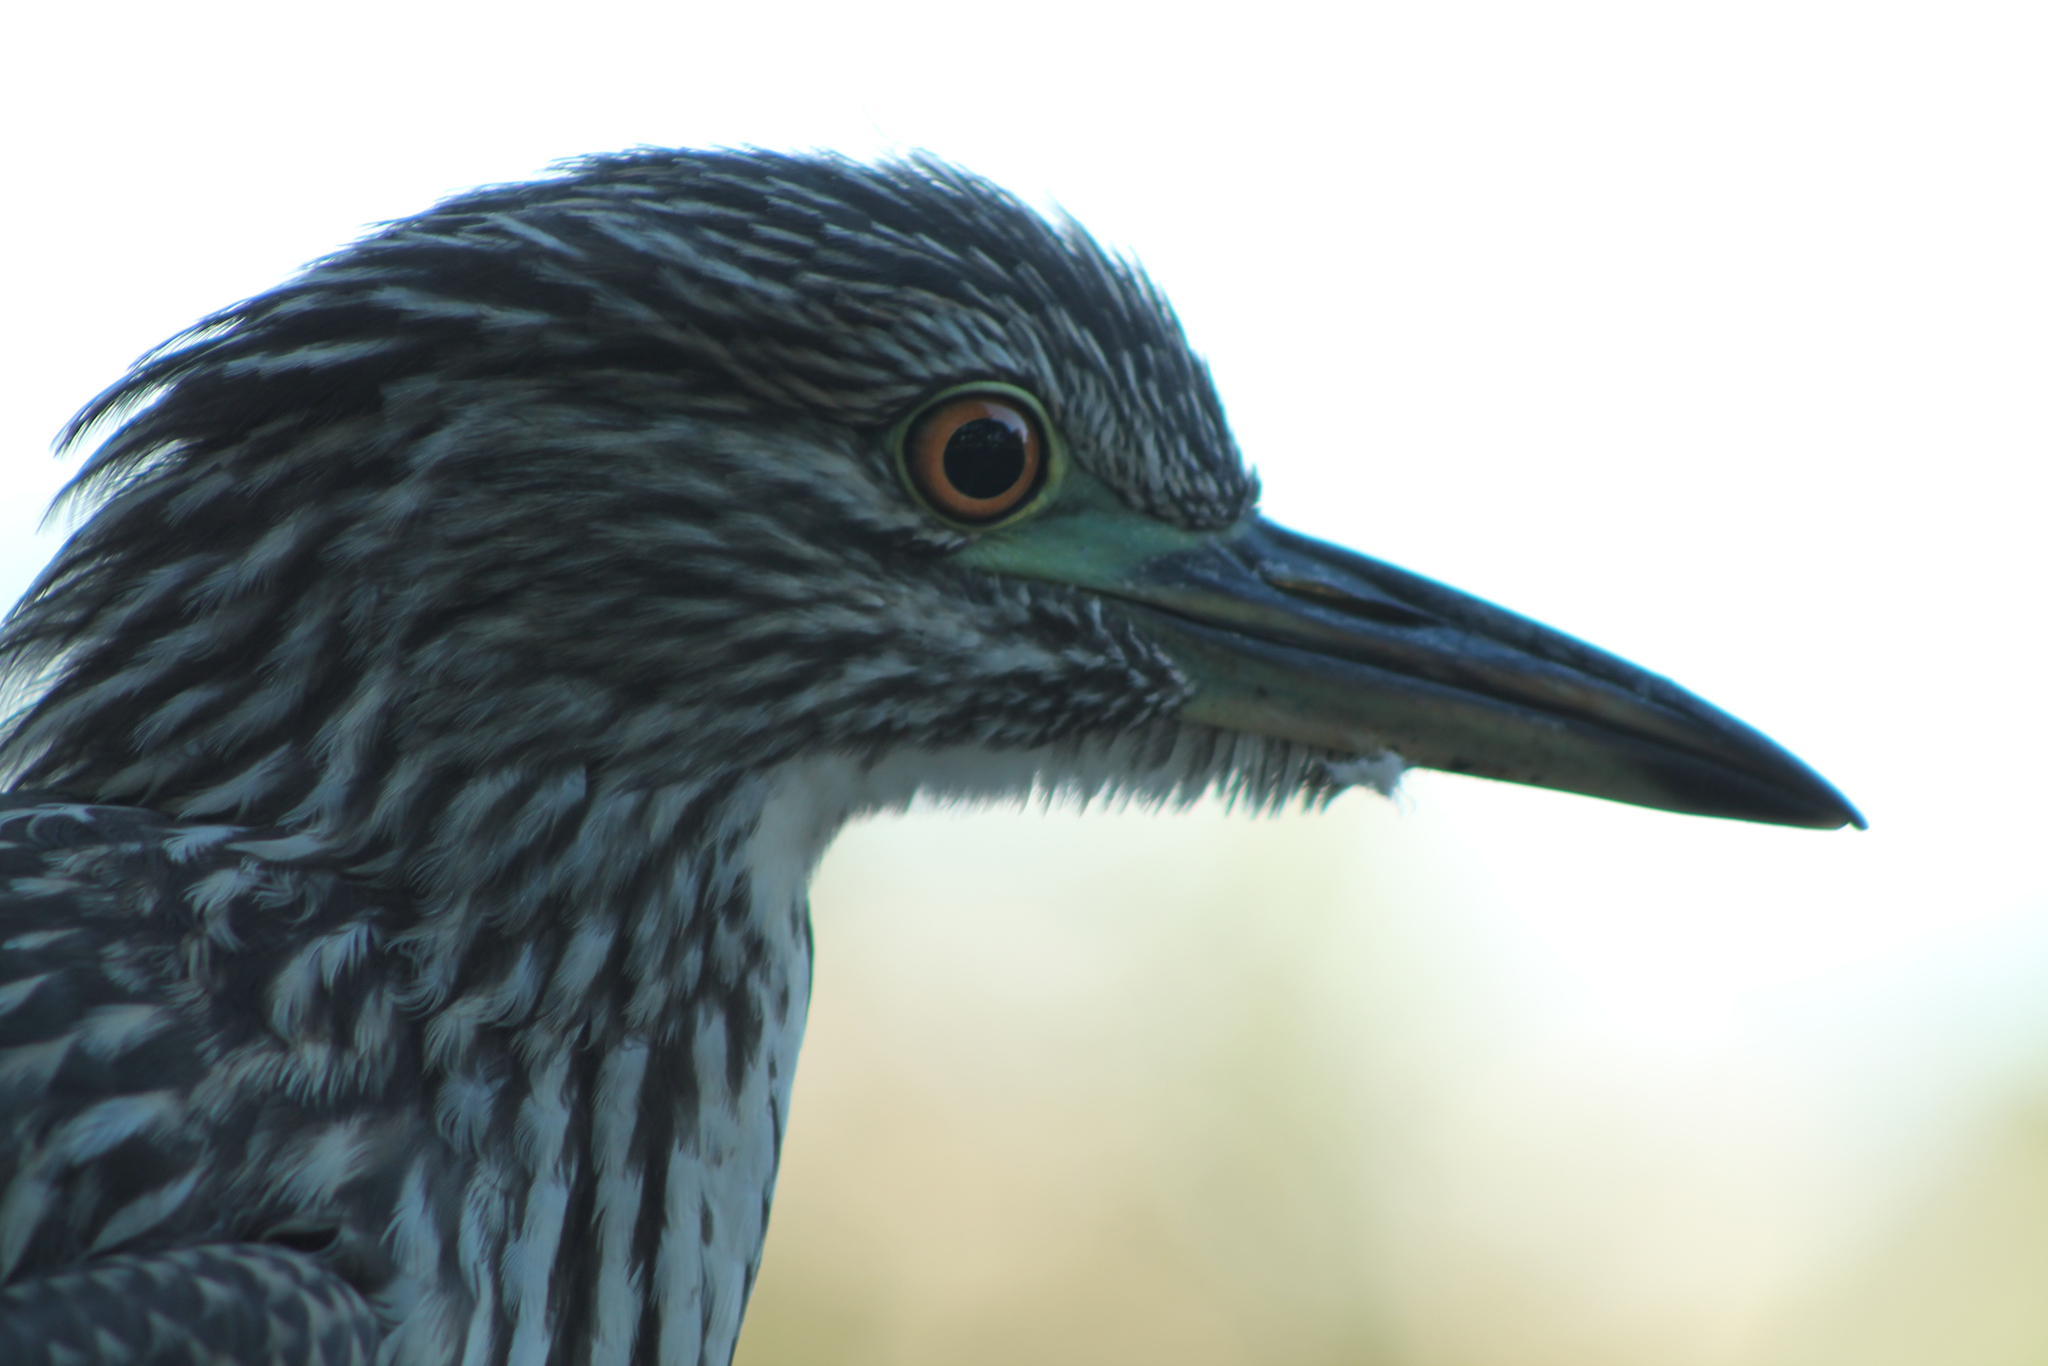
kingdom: Animalia
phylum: Chordata
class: Aves
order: Pelecaniformes
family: Ardeidae
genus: Nycticorax
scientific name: Nycticorax nycticorax
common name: Black-crowned night heron
